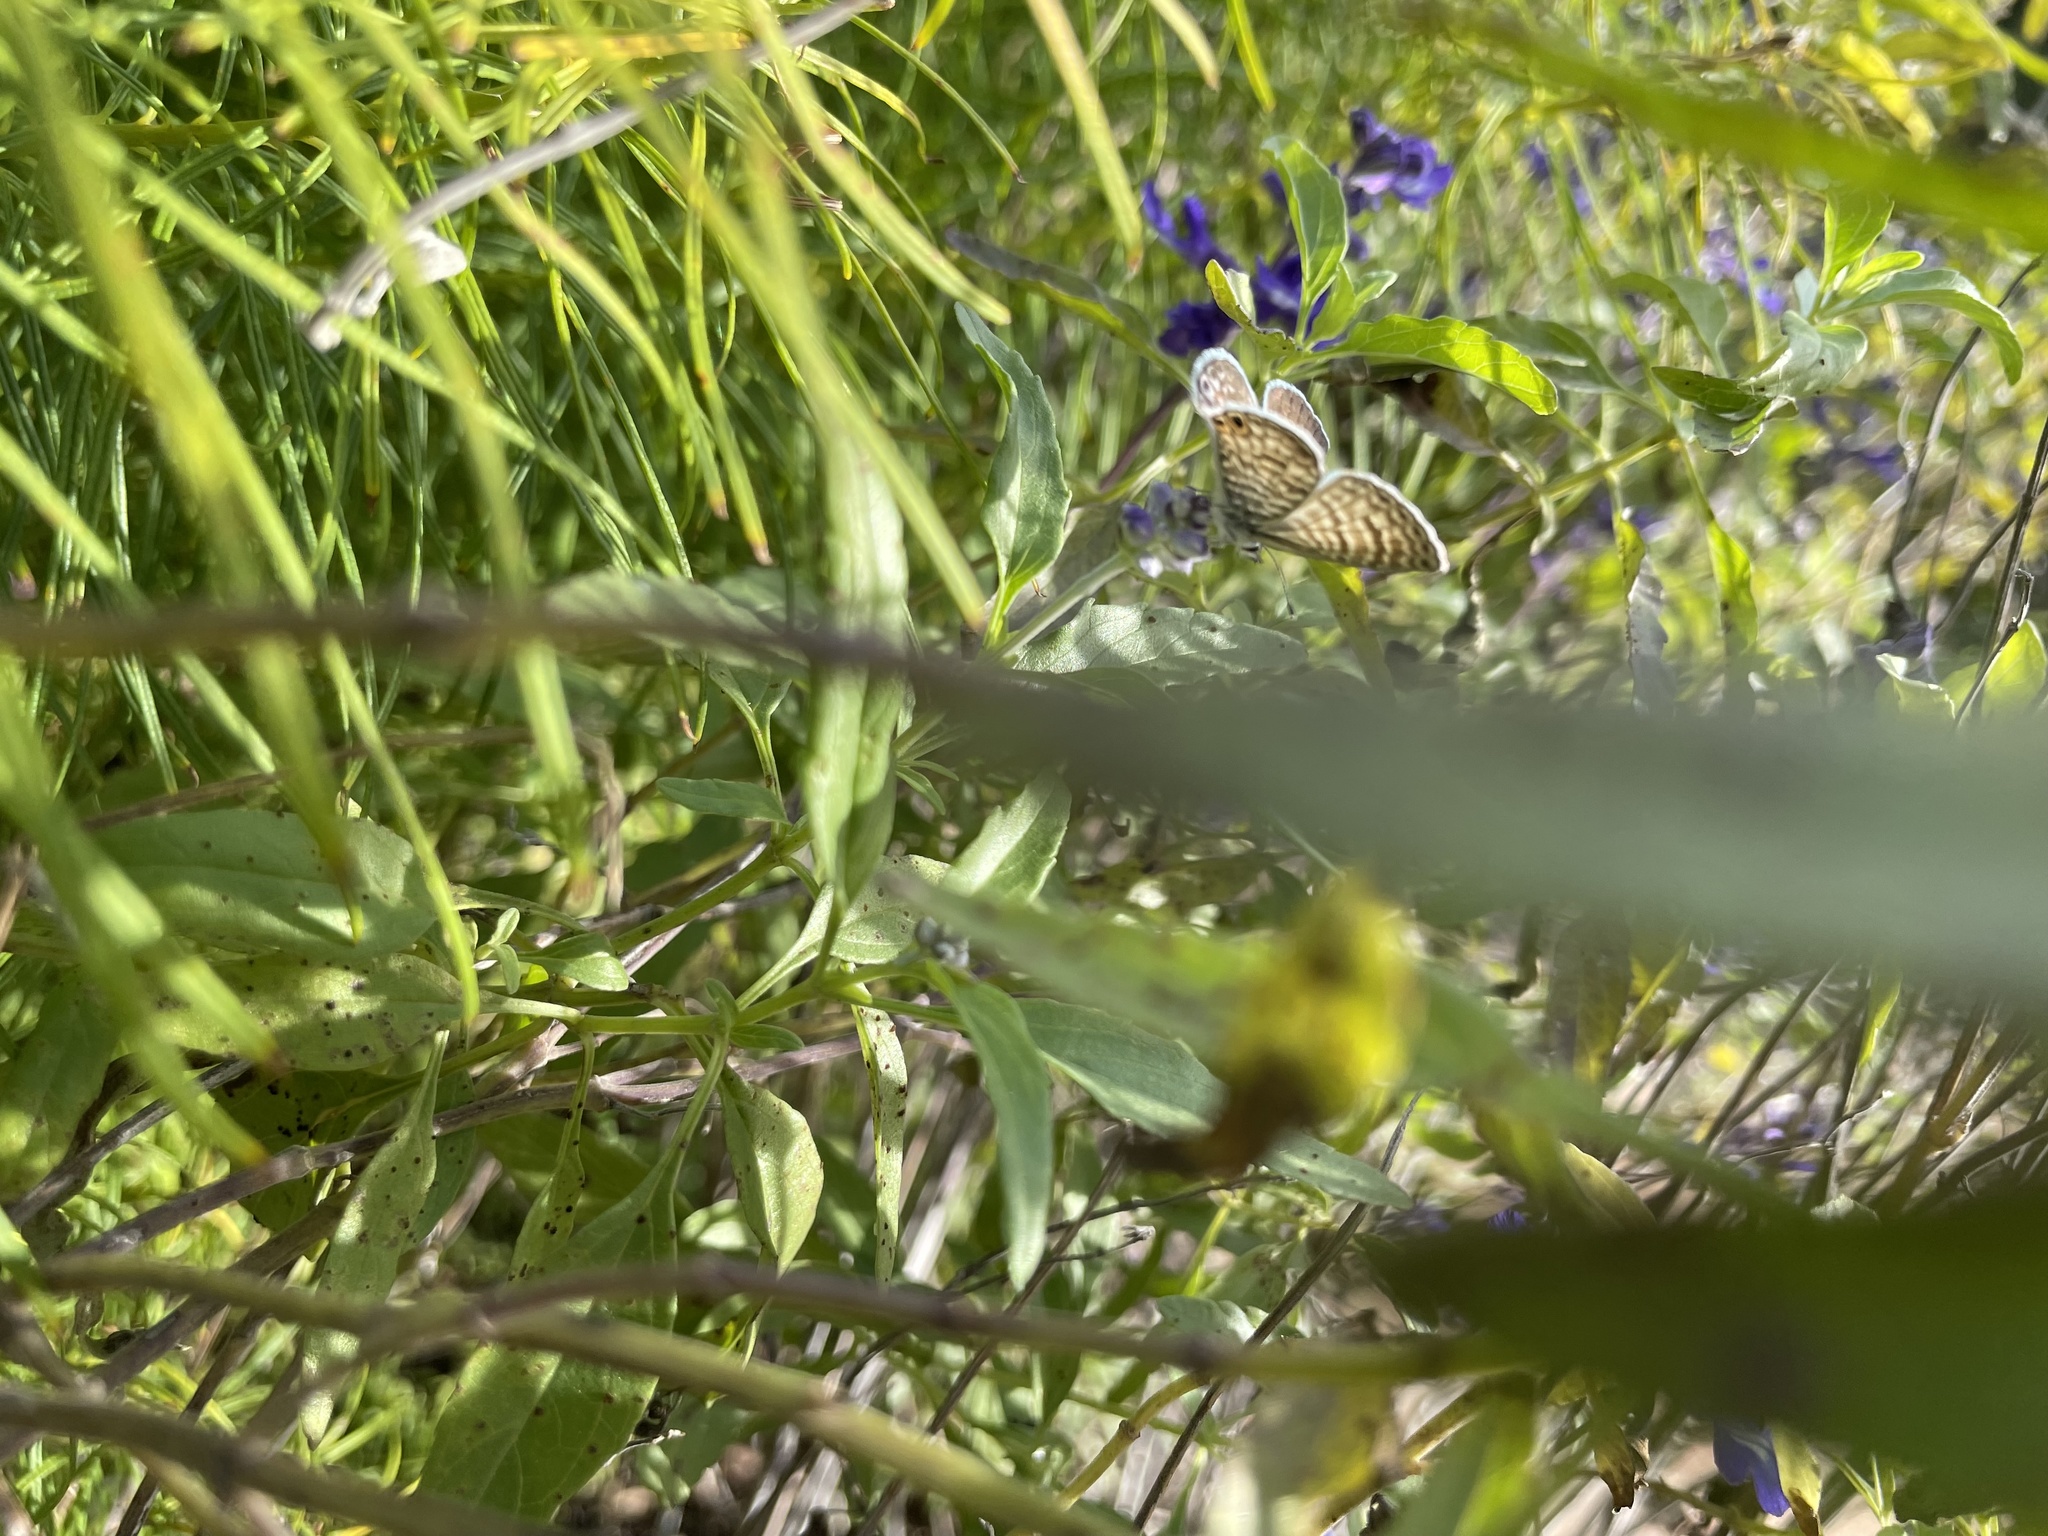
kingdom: Animalia
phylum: Arthropoda
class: Insecta
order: Lepidoptera
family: Lycaenidae
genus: Leptotes
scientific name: Leptotes marina
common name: Marine blue
